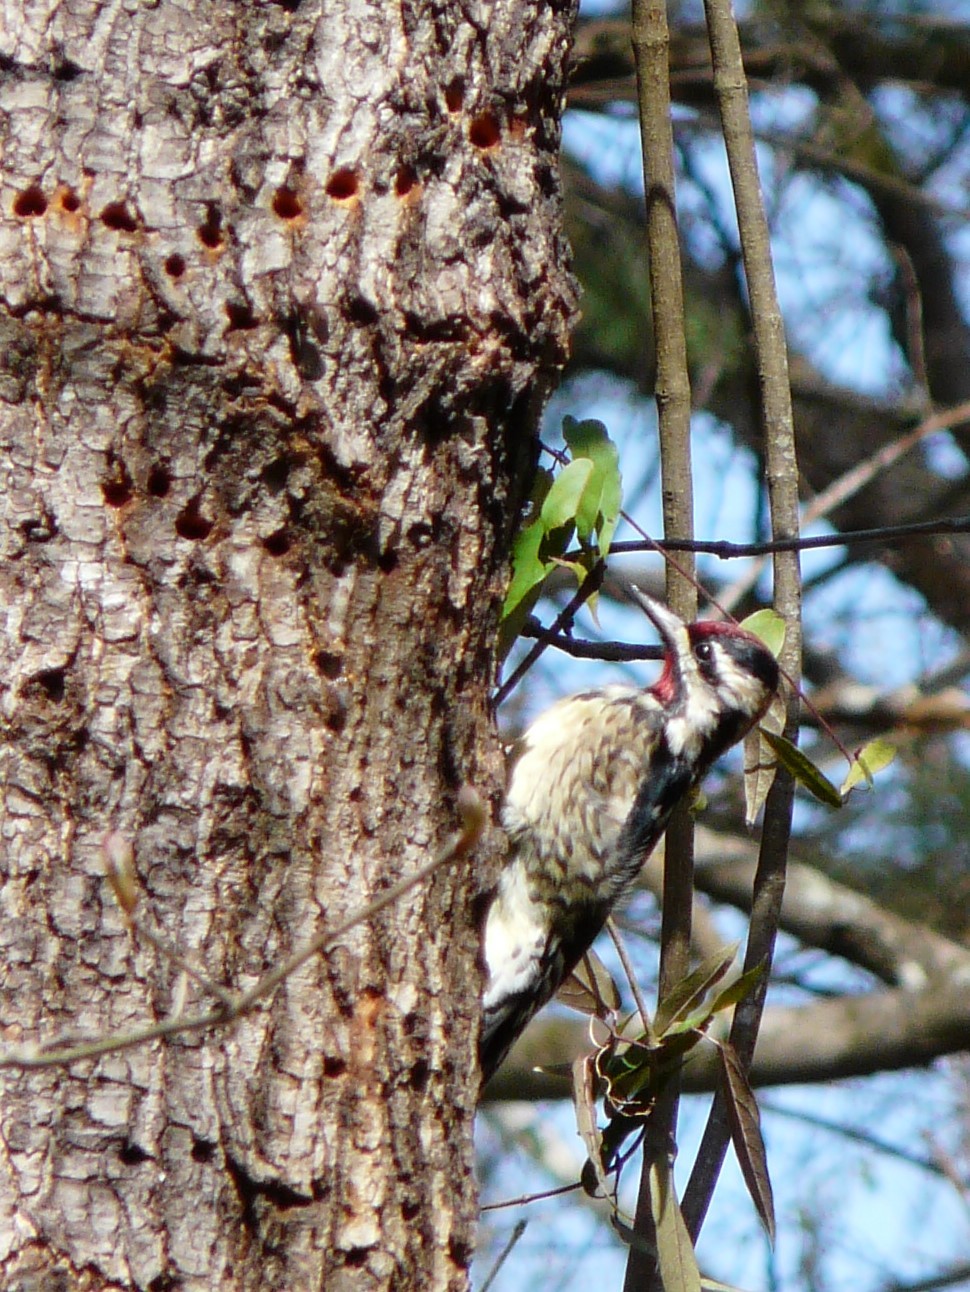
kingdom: Animalia
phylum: Chordata
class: Aves
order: Piciformes
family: Picidae
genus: Sphyrapicus
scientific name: Sphyrapicus varius
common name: Yellow-bellied sapsucker
